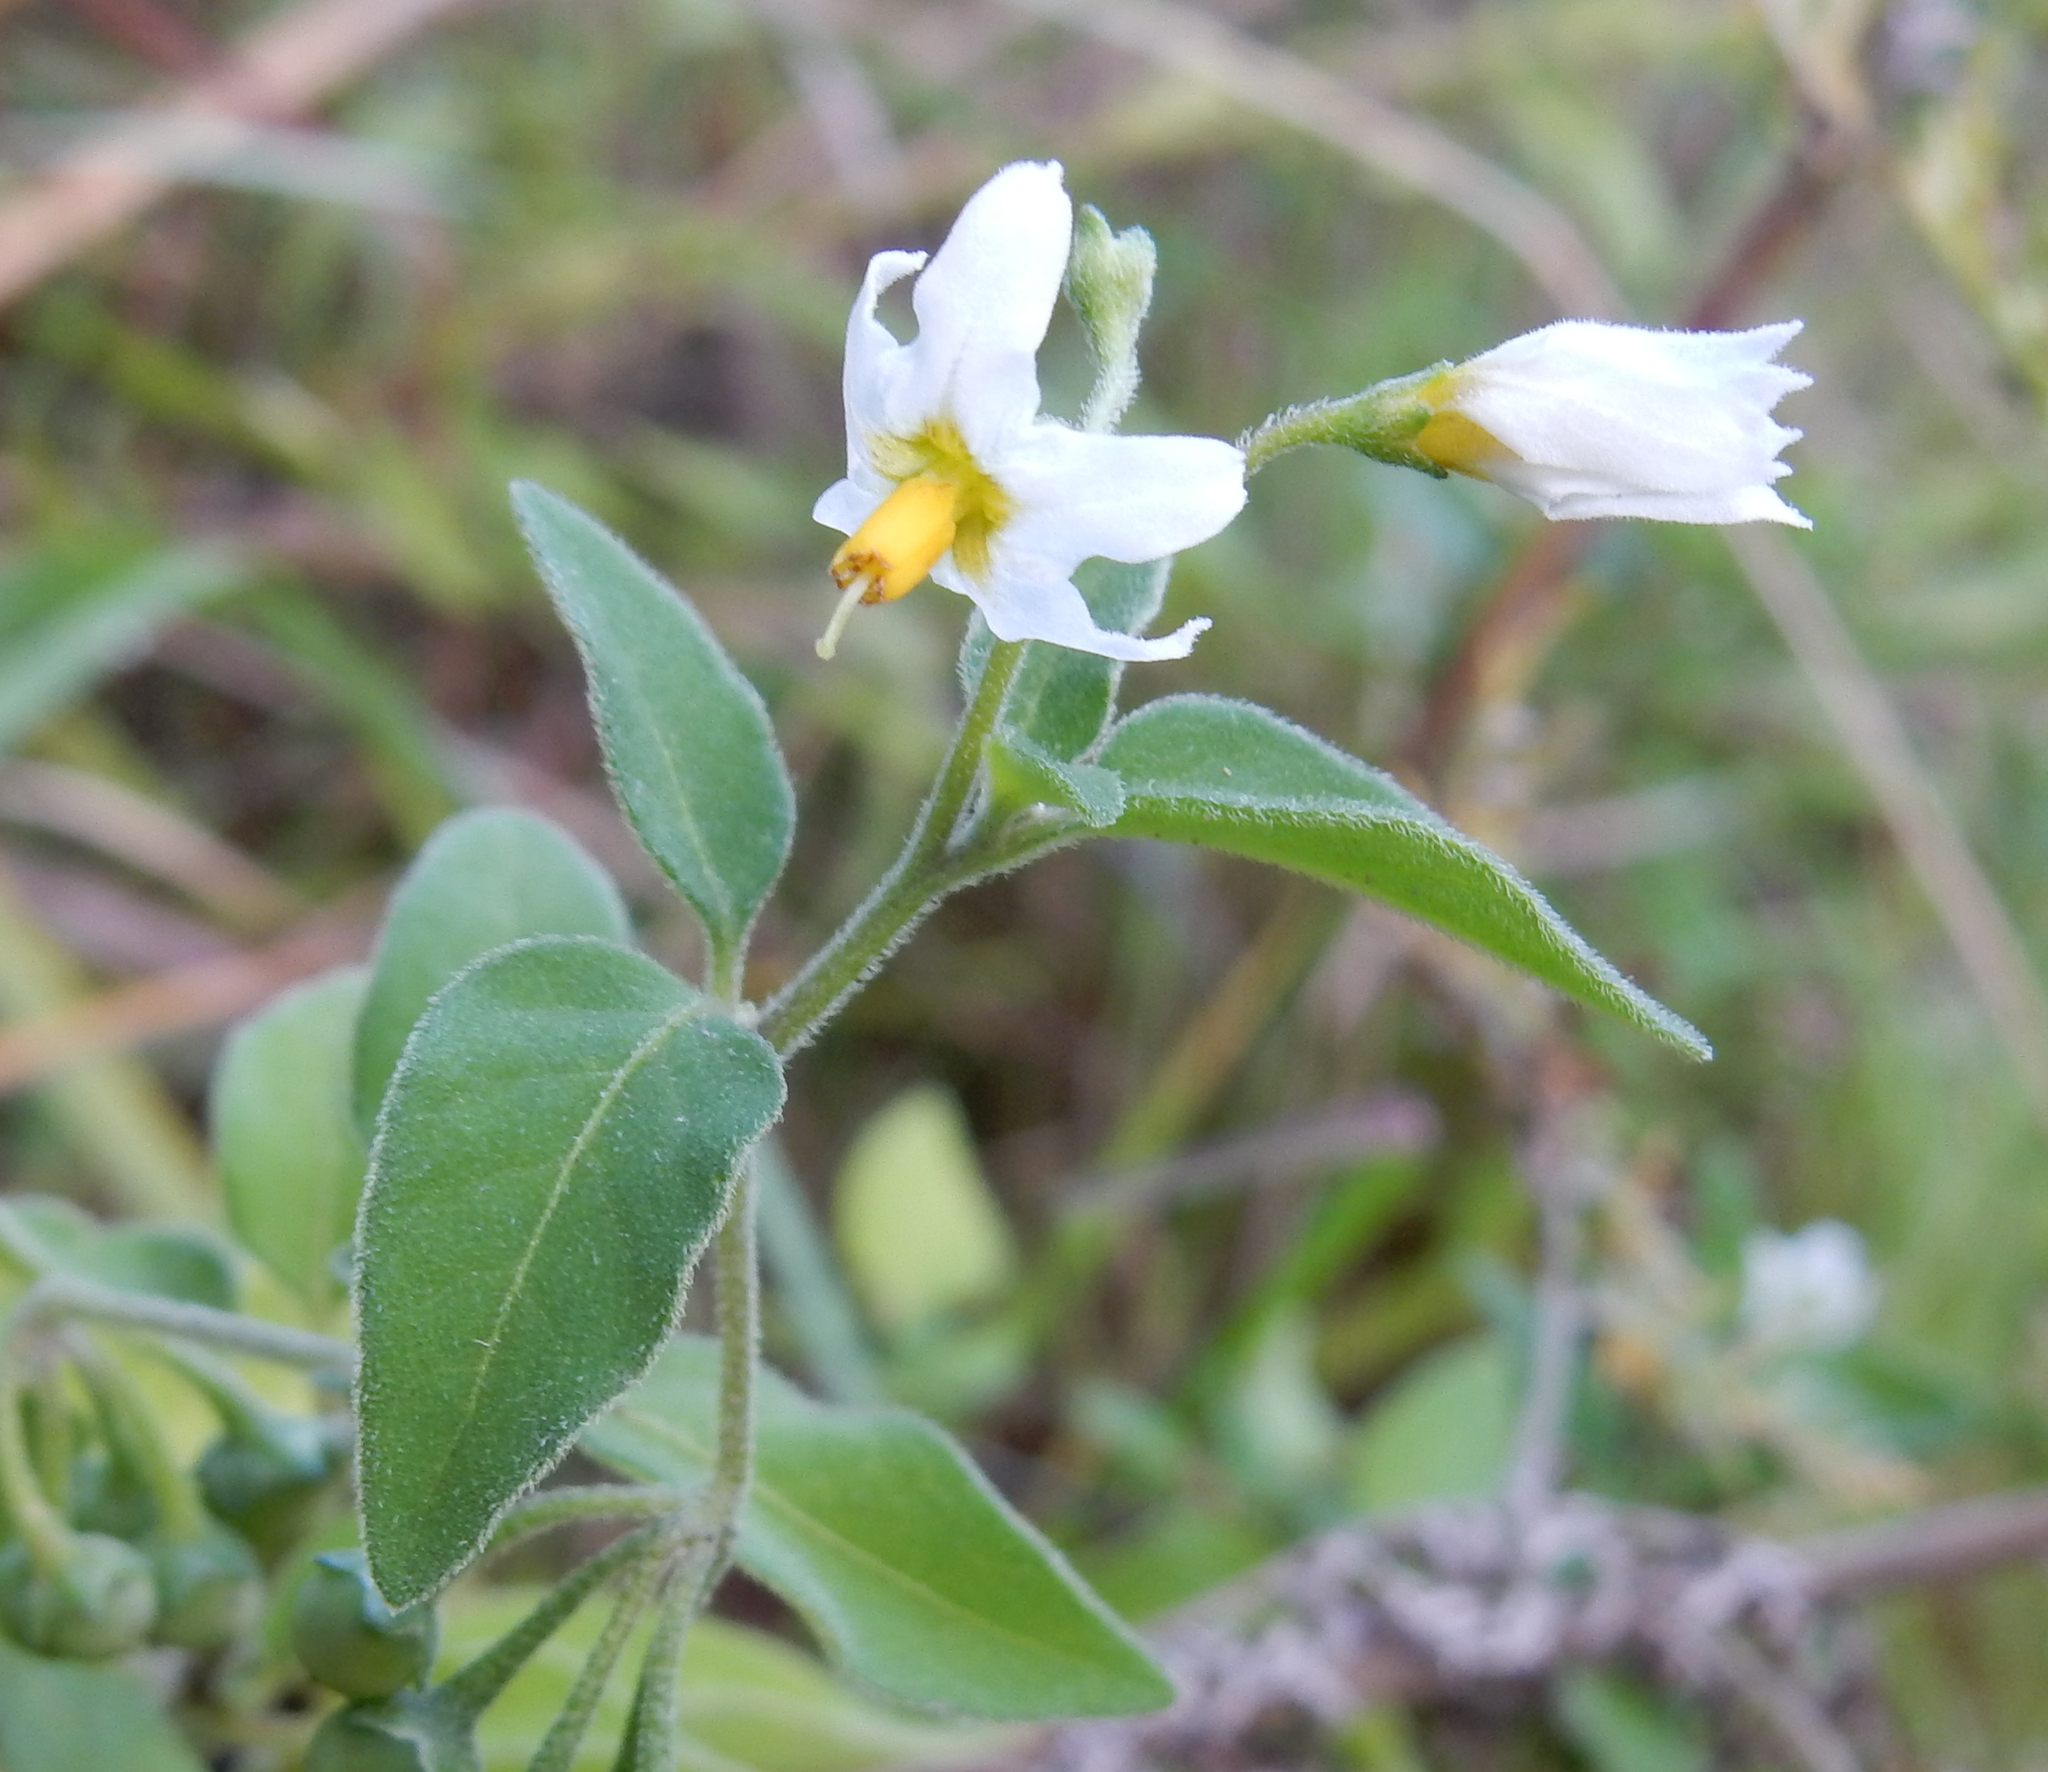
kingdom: Plantae
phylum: Tracheophyta
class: Magnoliopsida
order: Solanales
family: Solanaceae
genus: Solanum
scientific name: Solanum chenopodioides
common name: Tall nightshade
